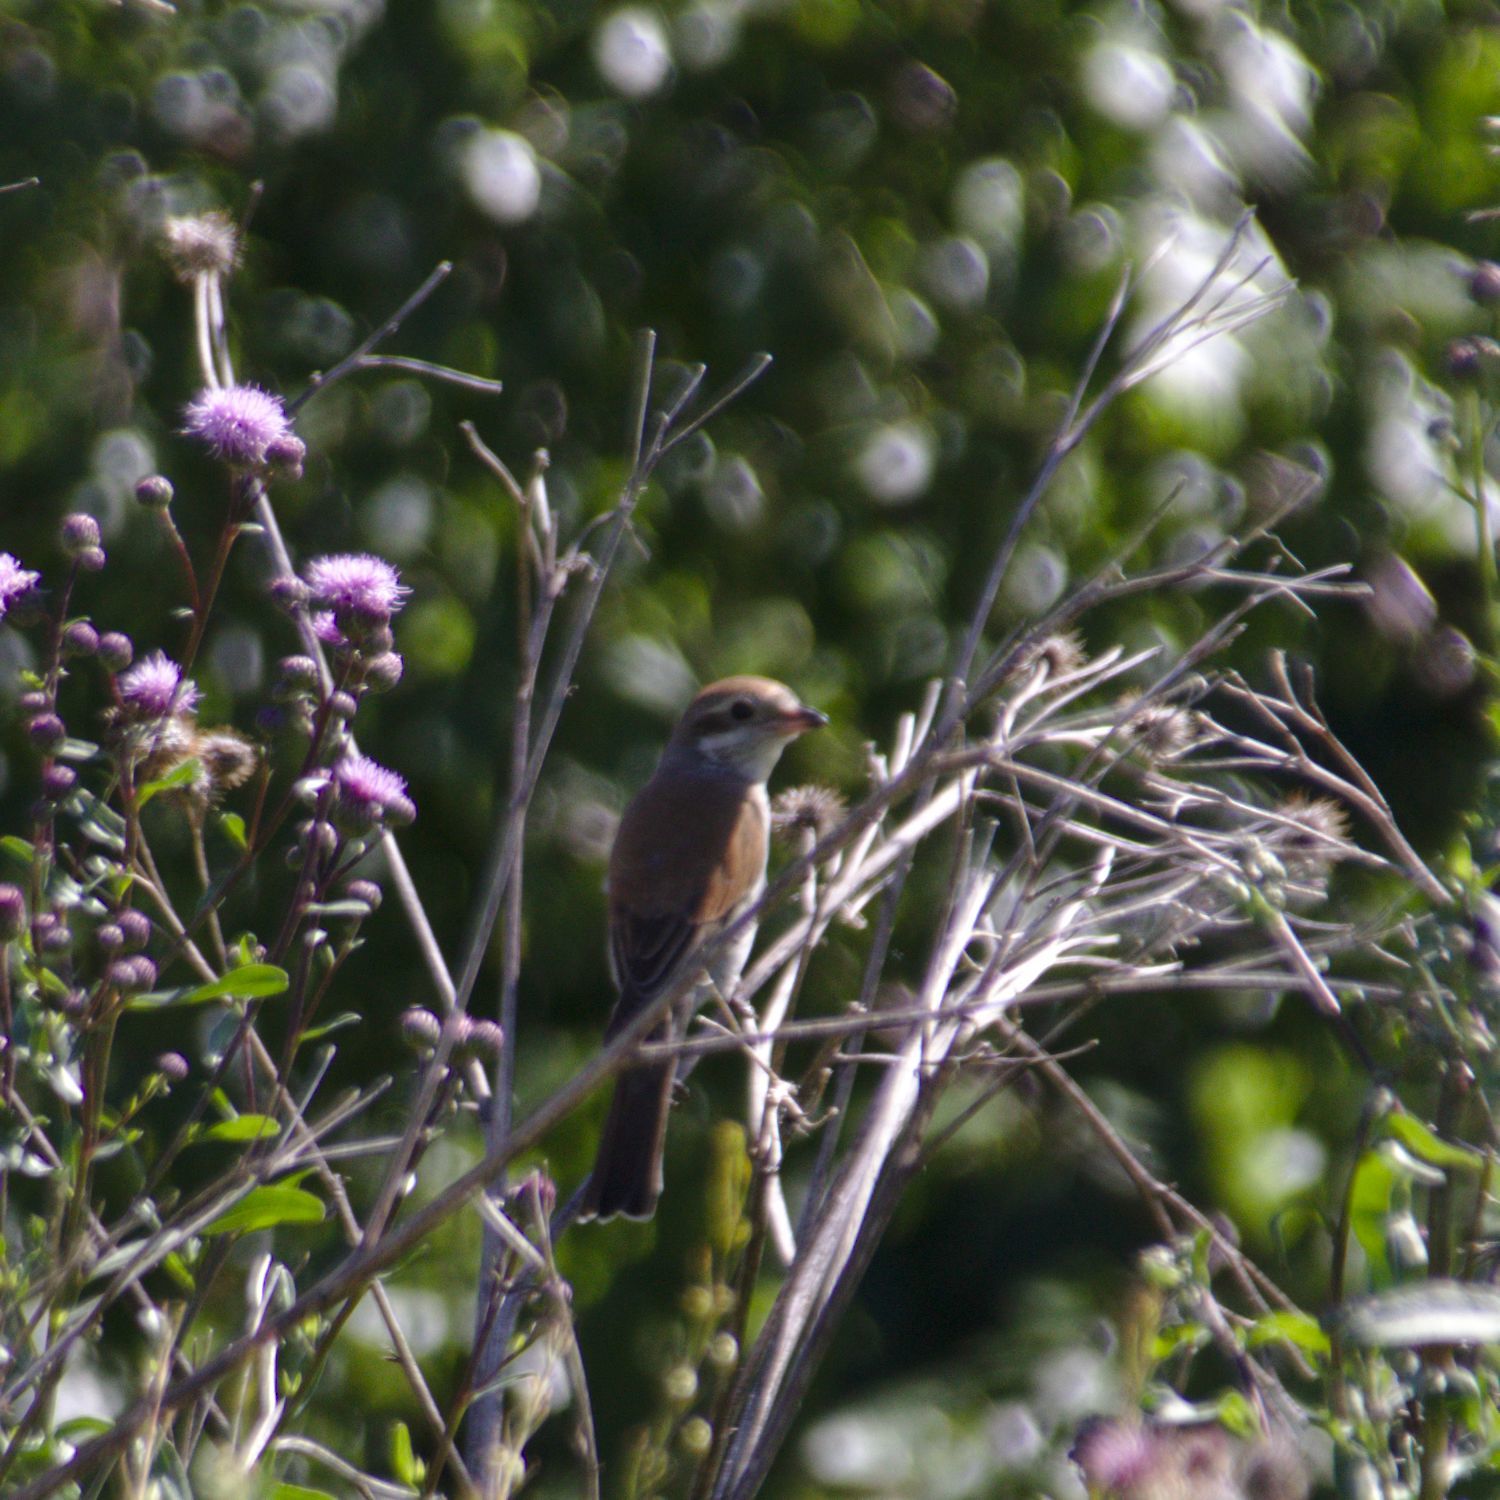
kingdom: Animalia
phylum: Chordata
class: Aves
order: Passeriformes
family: Laniidae
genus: Lanius
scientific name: Lanius collurio
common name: Red-backed shrike
